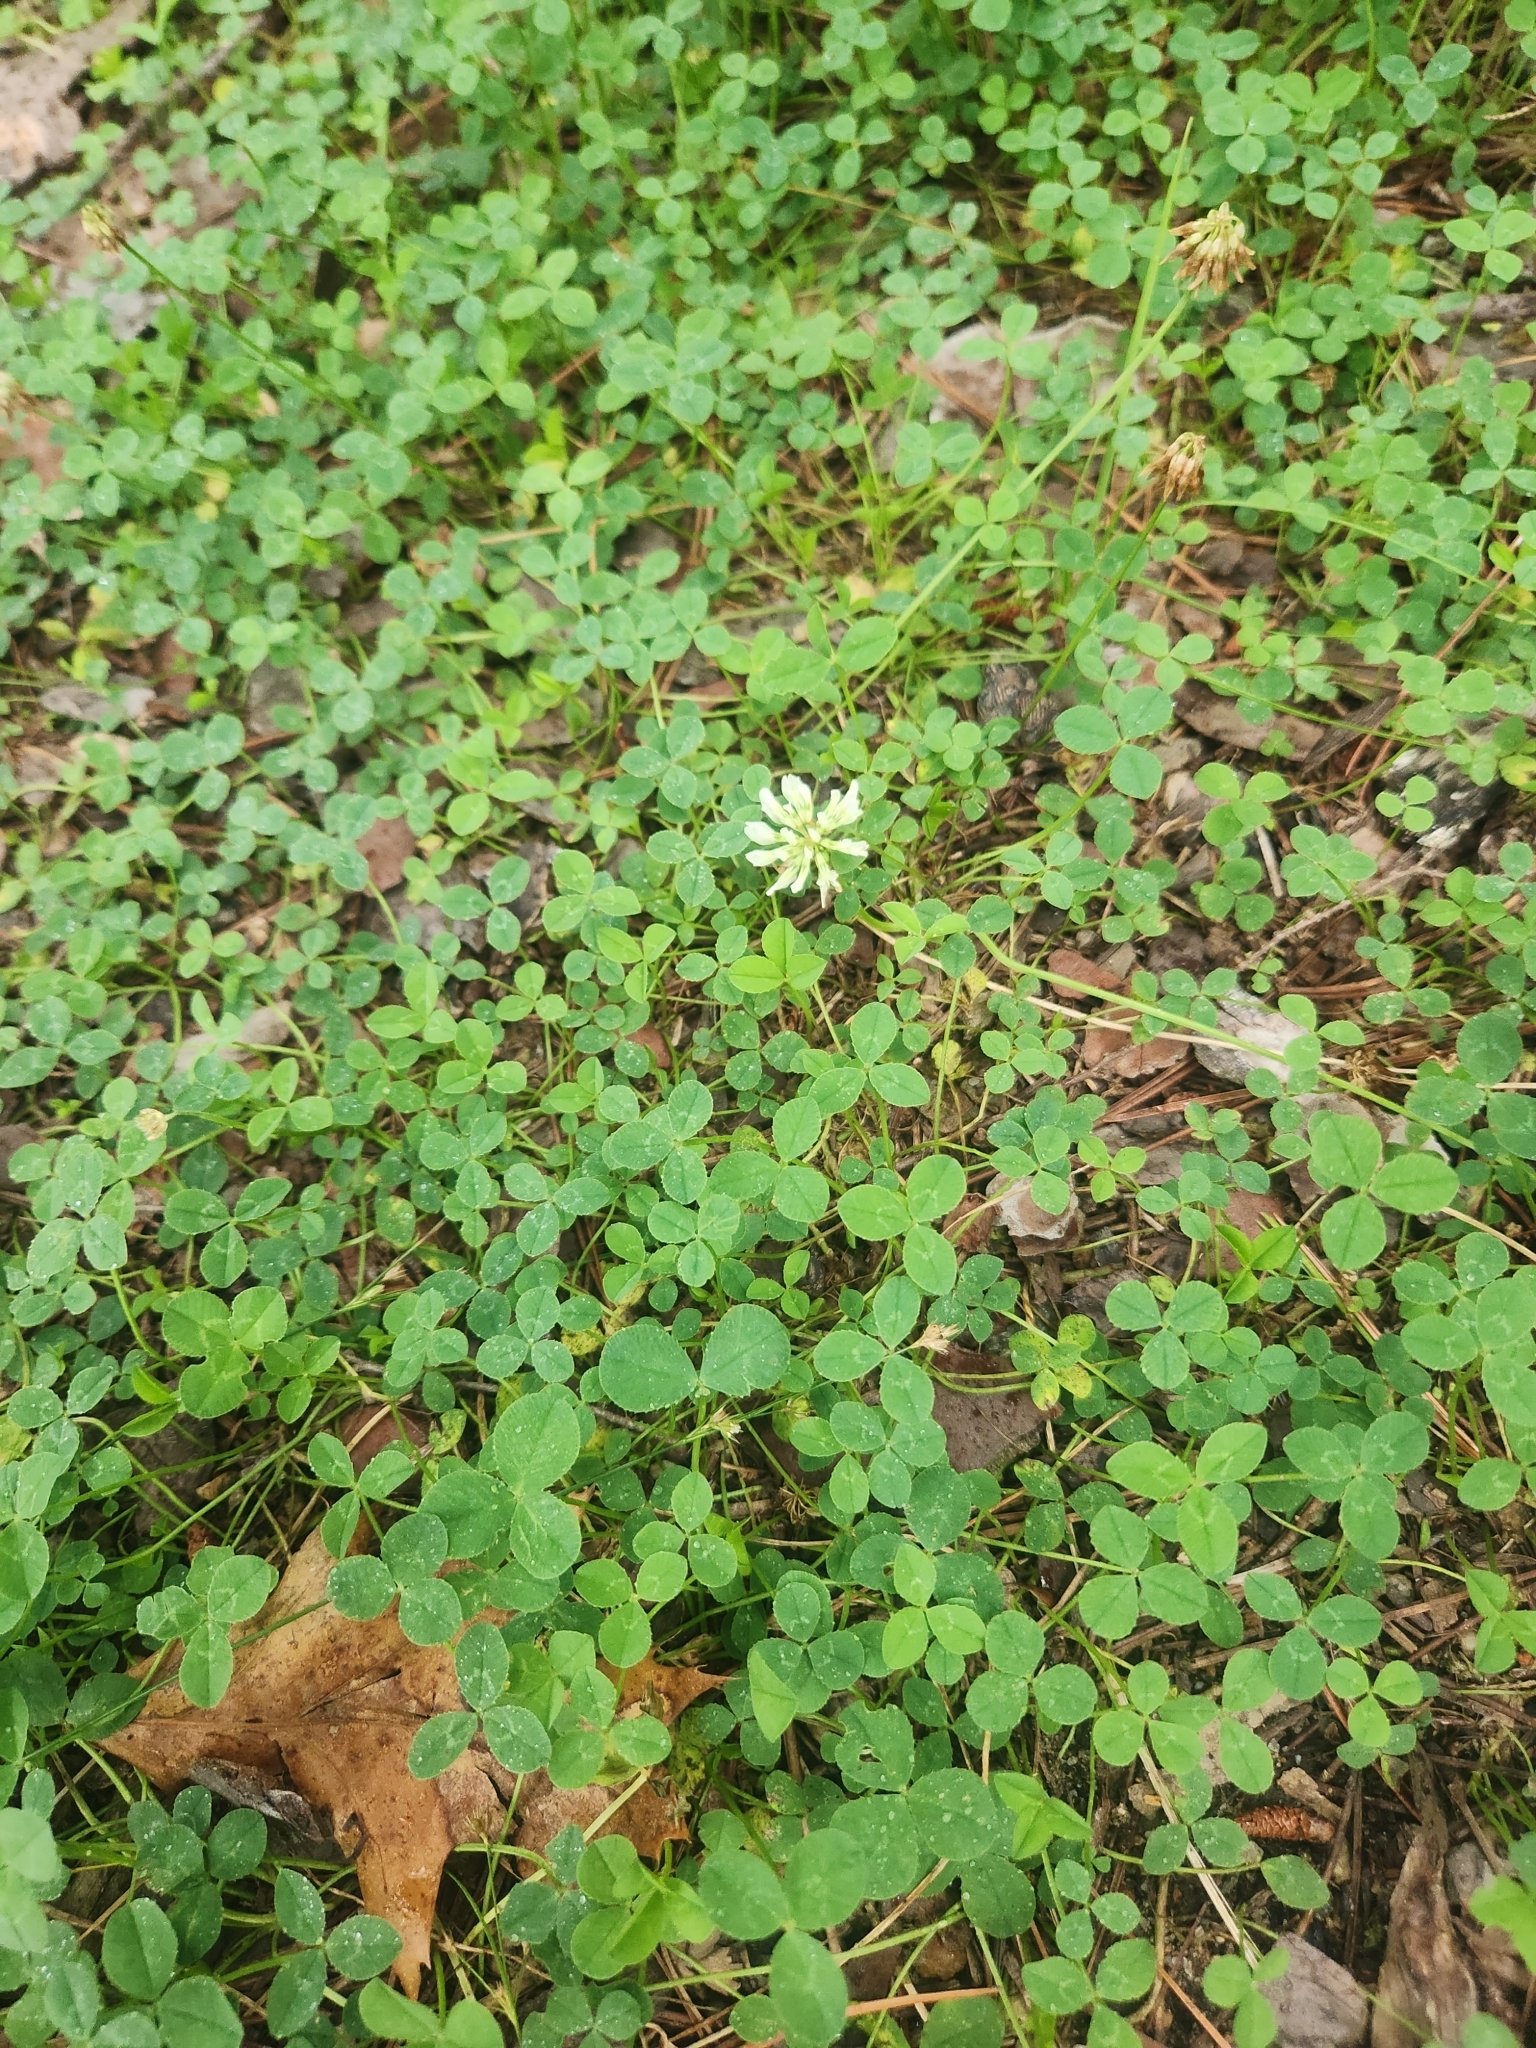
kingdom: Plantae
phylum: Tracheophyta
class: Magnoliopsida
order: Fabales
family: Fabaceae
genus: Trifolium
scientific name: Trifolium repens
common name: White clover
